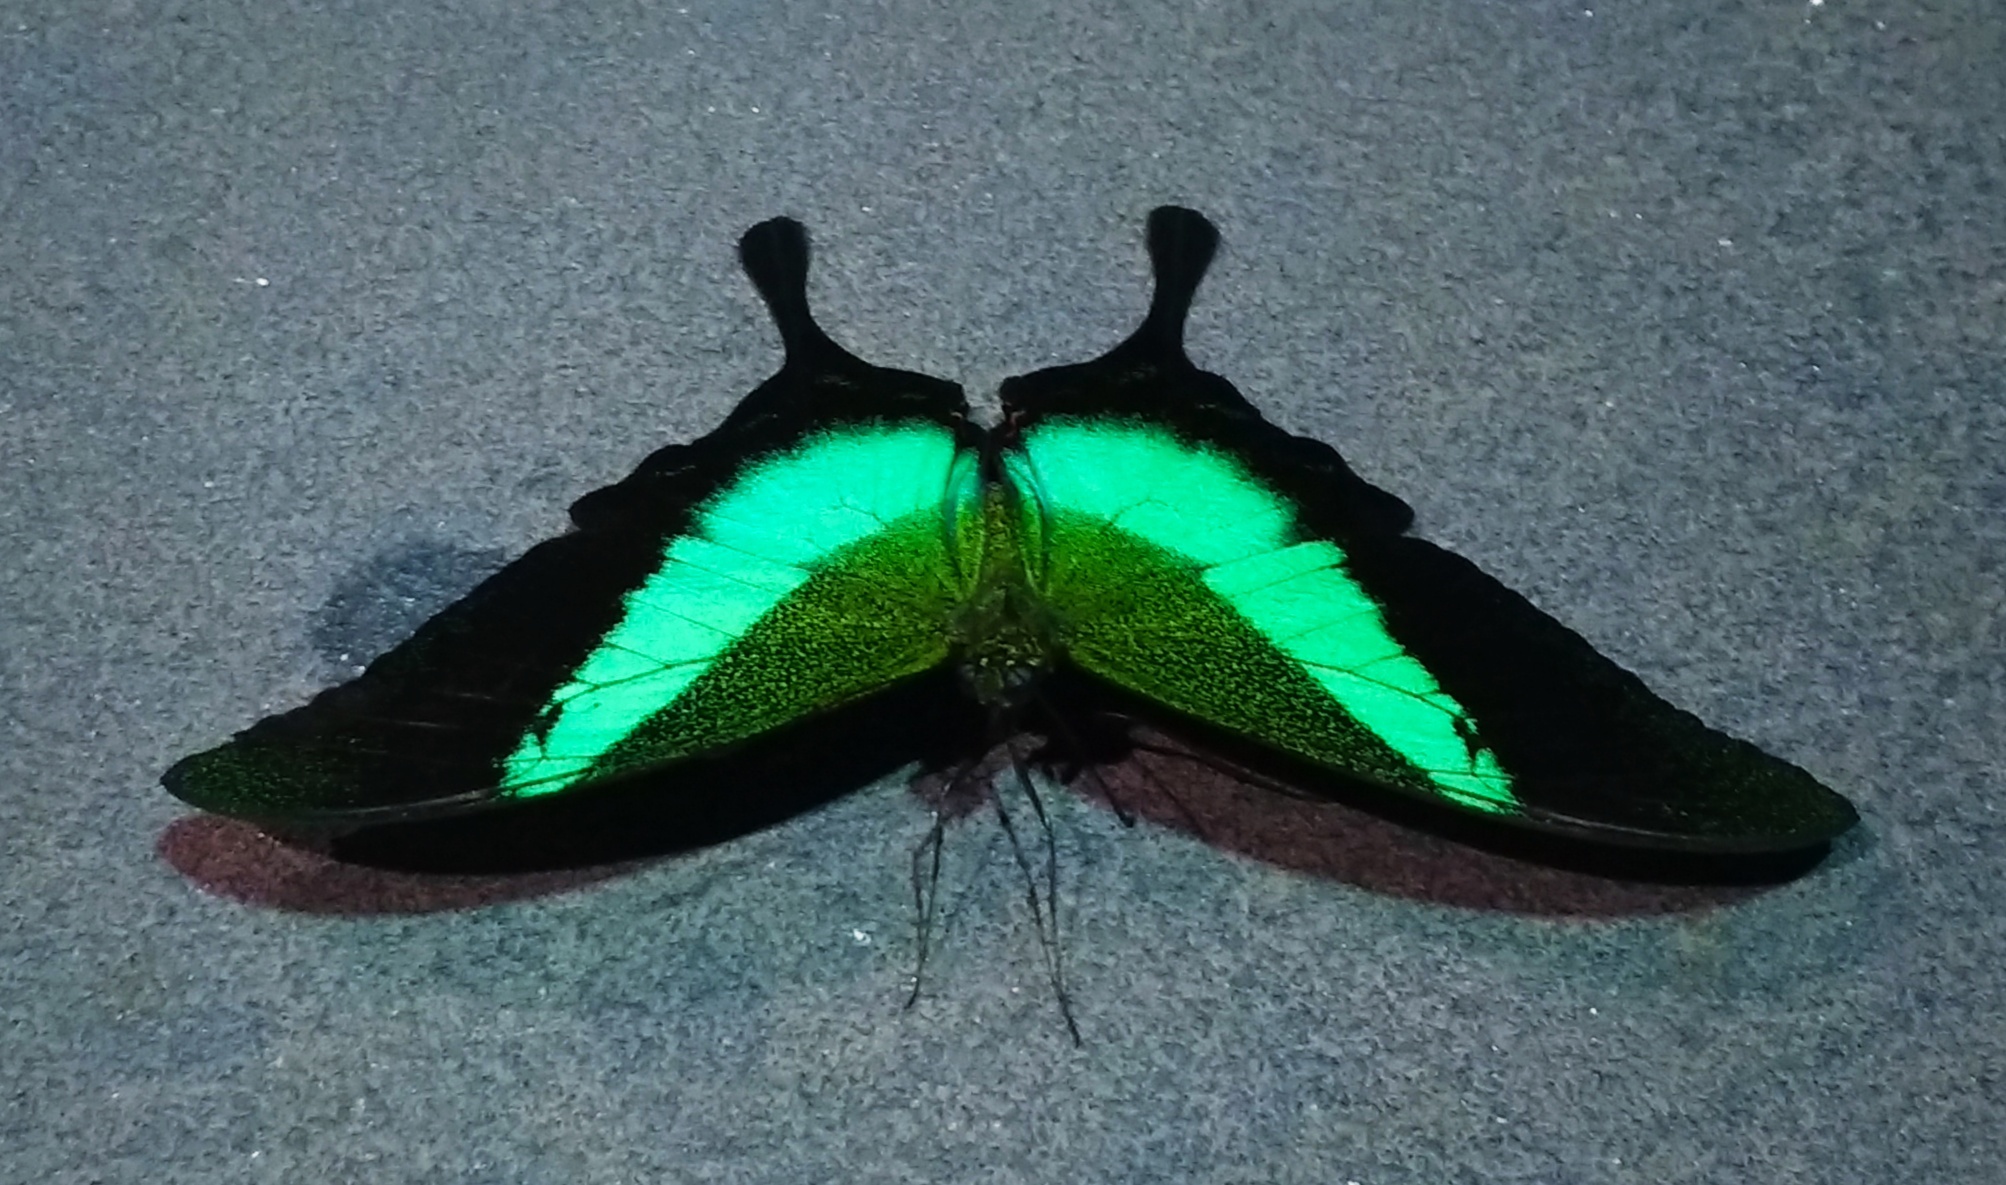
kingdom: Animalia
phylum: Arthropoda
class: Insecta
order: Lepidoptera
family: Papilionidae
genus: Papilio
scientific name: Papilio buddha
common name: Malabar banded peacock
